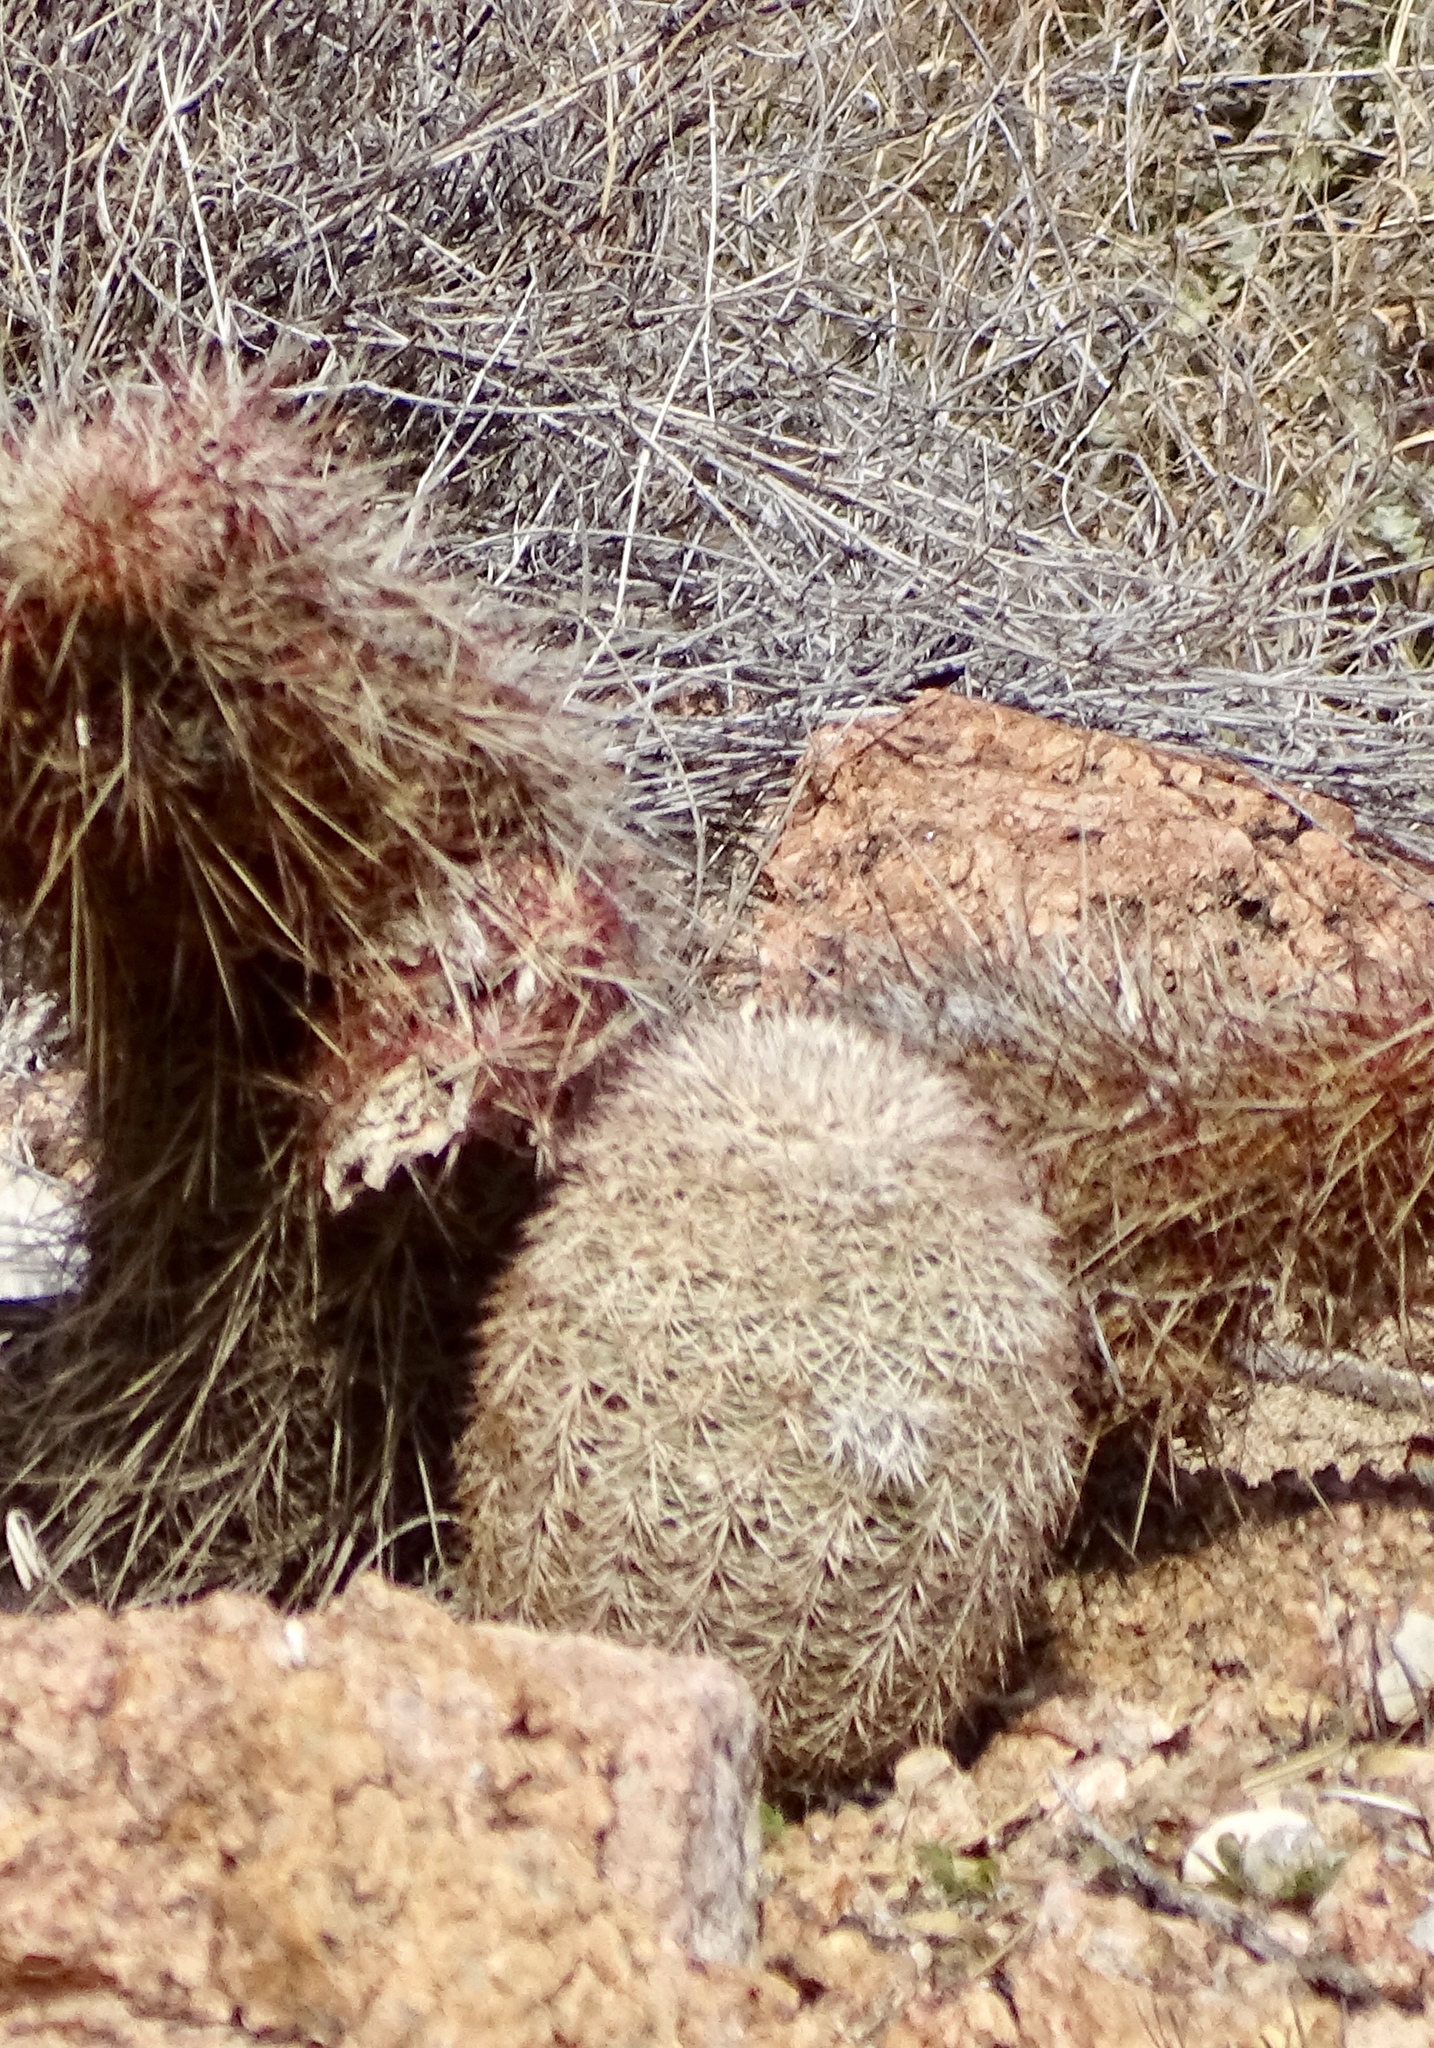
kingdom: Plantae
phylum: Tracheophyta
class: Magnoliopsida
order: Caryophyllales
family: Cactaceae
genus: Echinocereus
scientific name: Echinocereus dasyacanthus
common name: Spiny hedgehog cactus
